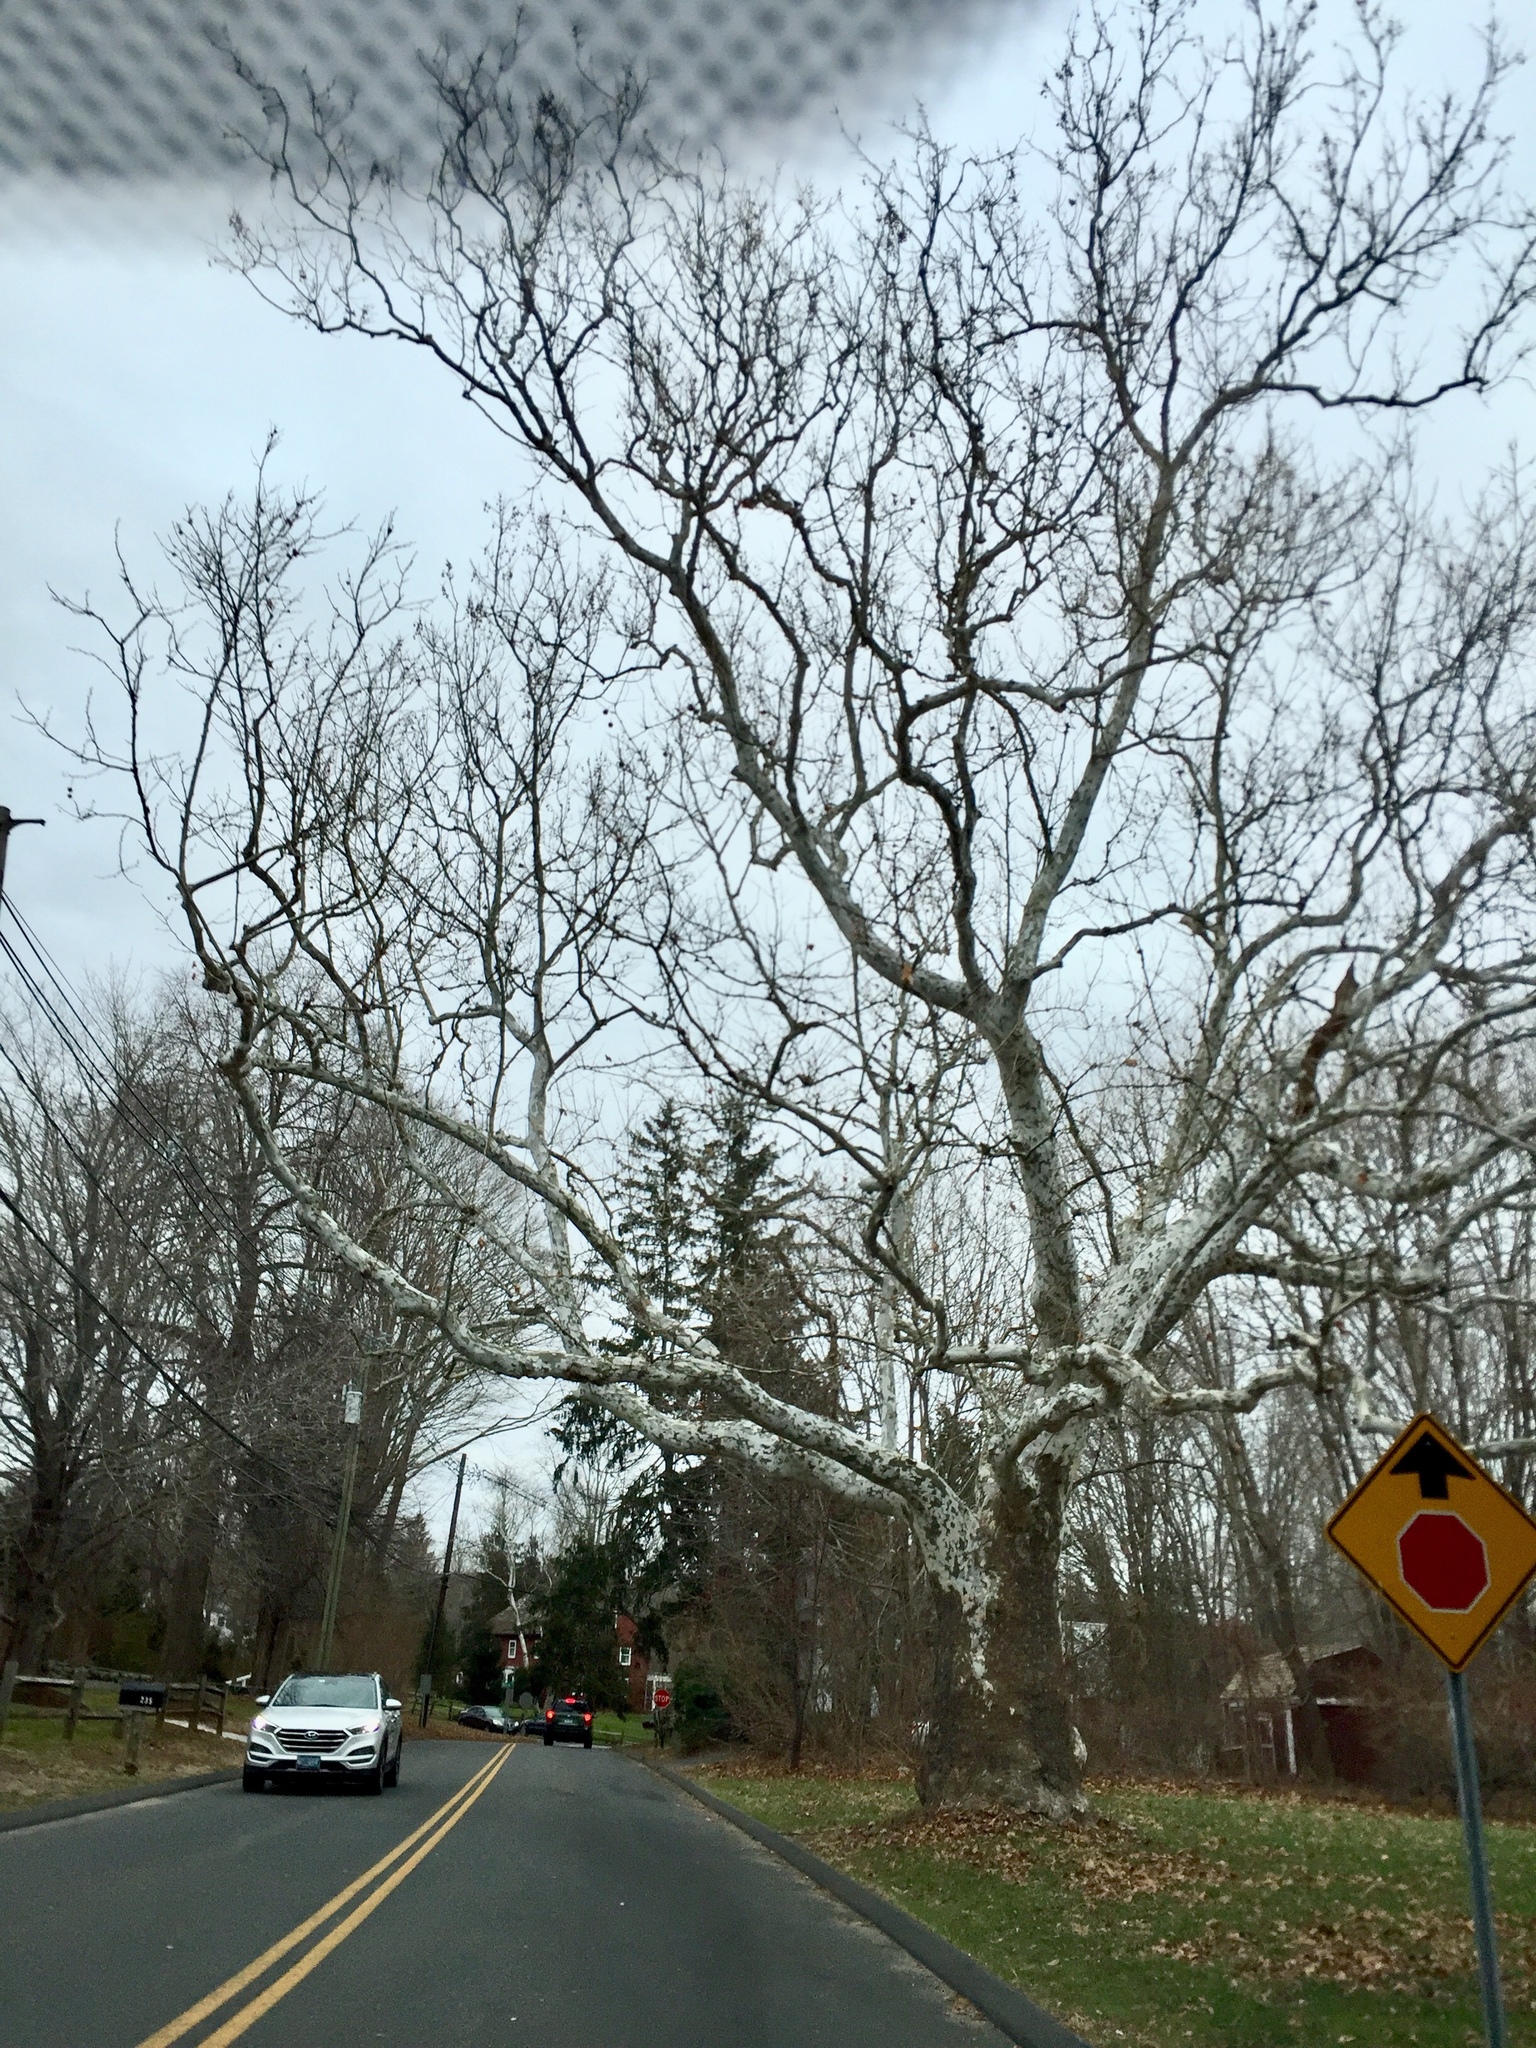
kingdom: Plantae
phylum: Tracheophyta
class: Magnoliopsida
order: Proteales
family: Platanaceae
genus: Platanus
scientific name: Platanus occidentalis
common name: American sycamore
